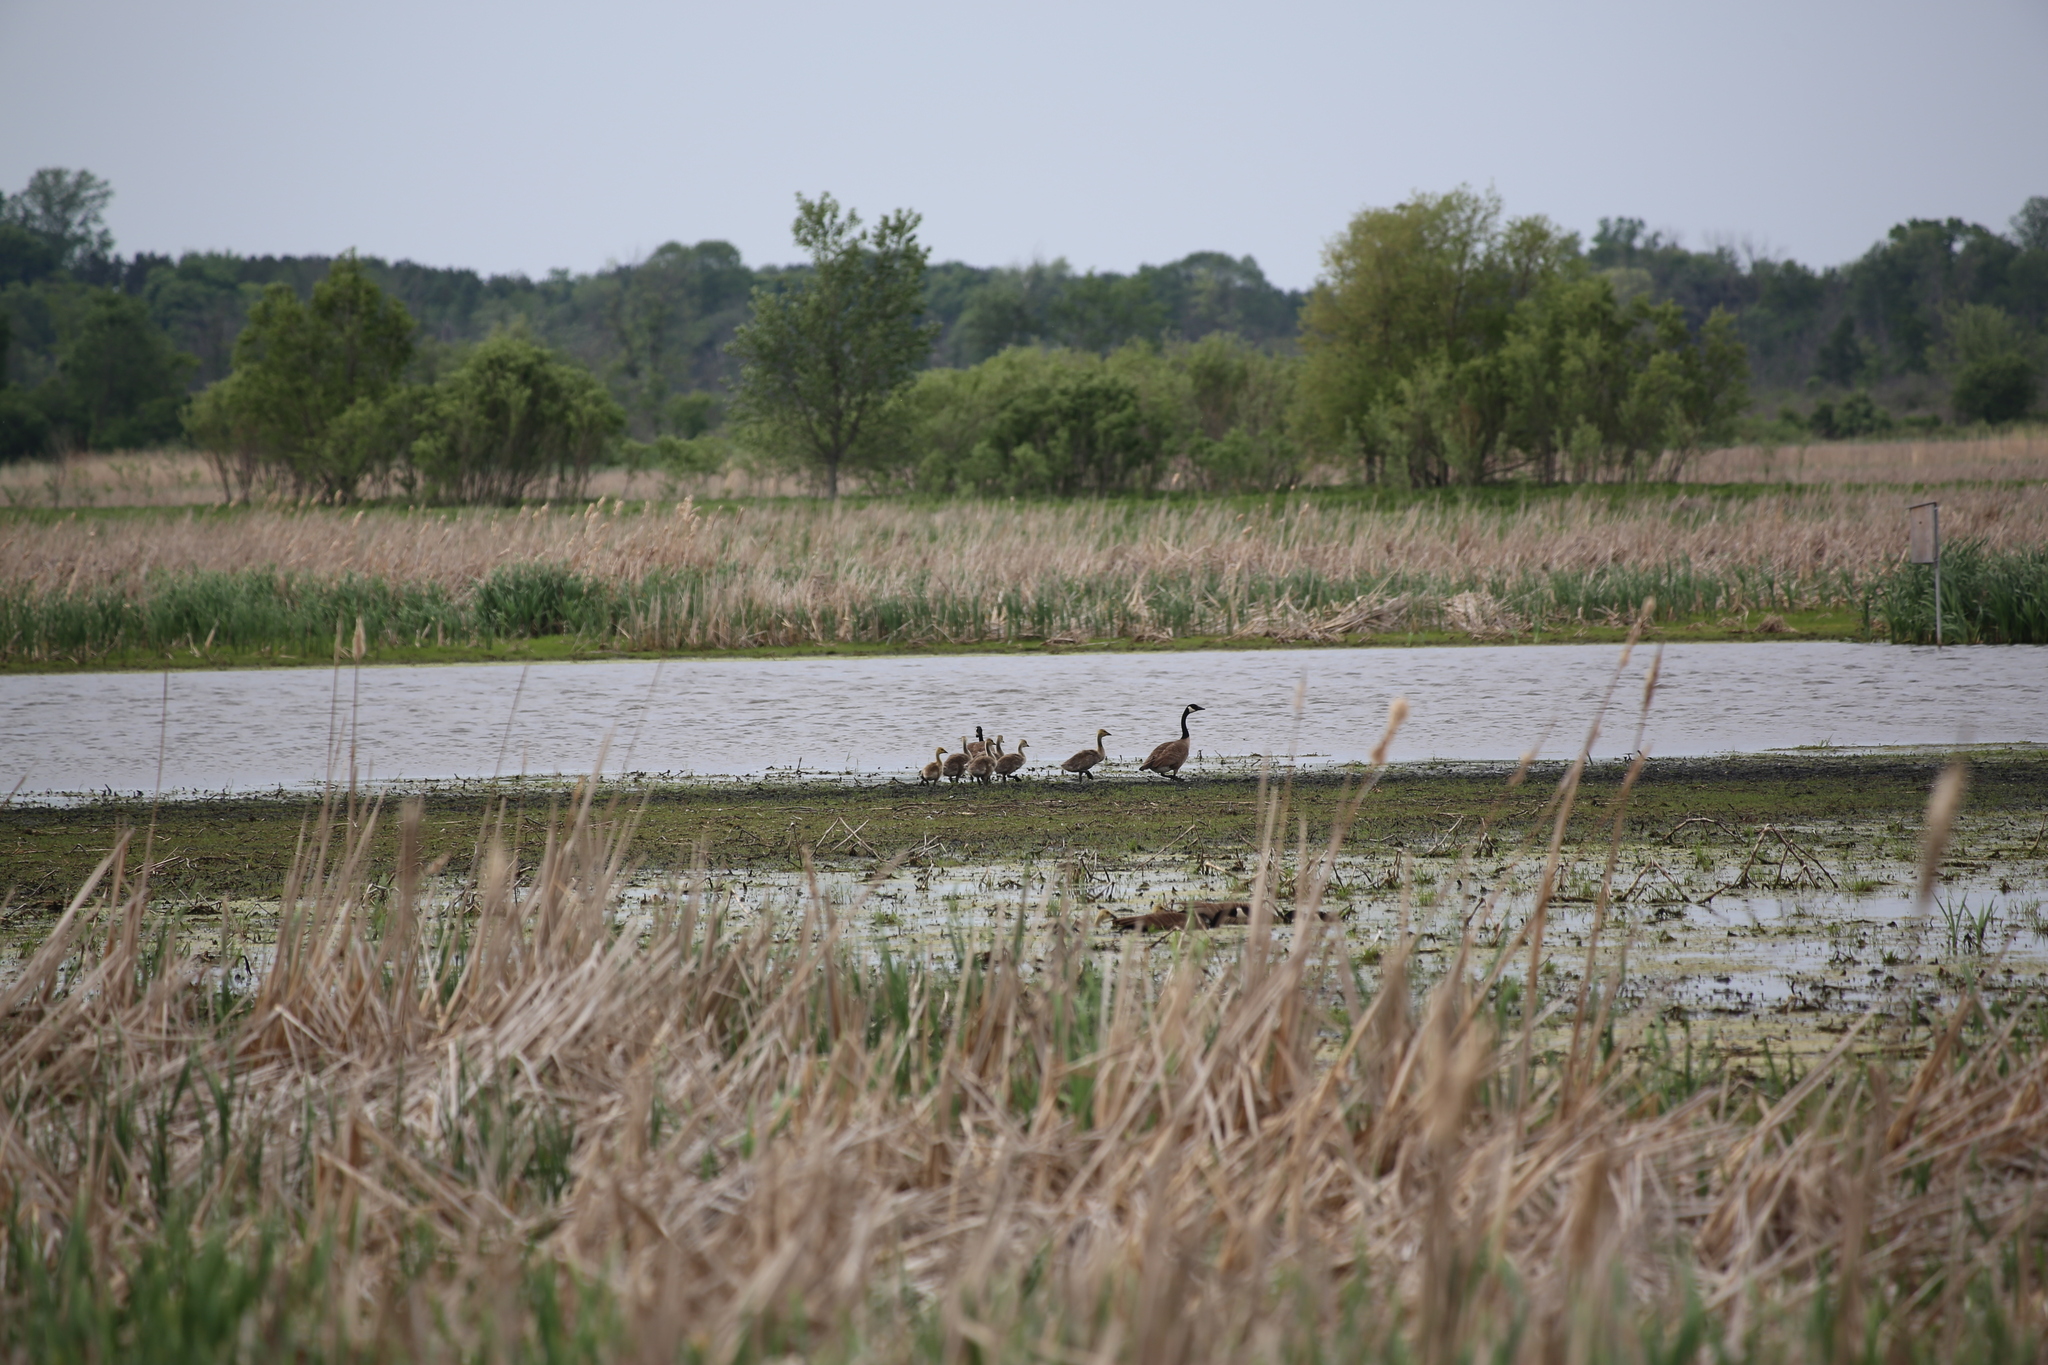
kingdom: Animalia
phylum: Chordata
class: Aves
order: Anseriformes
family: Anatidae
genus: Branta
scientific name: Branta canadensis
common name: Canada goose
